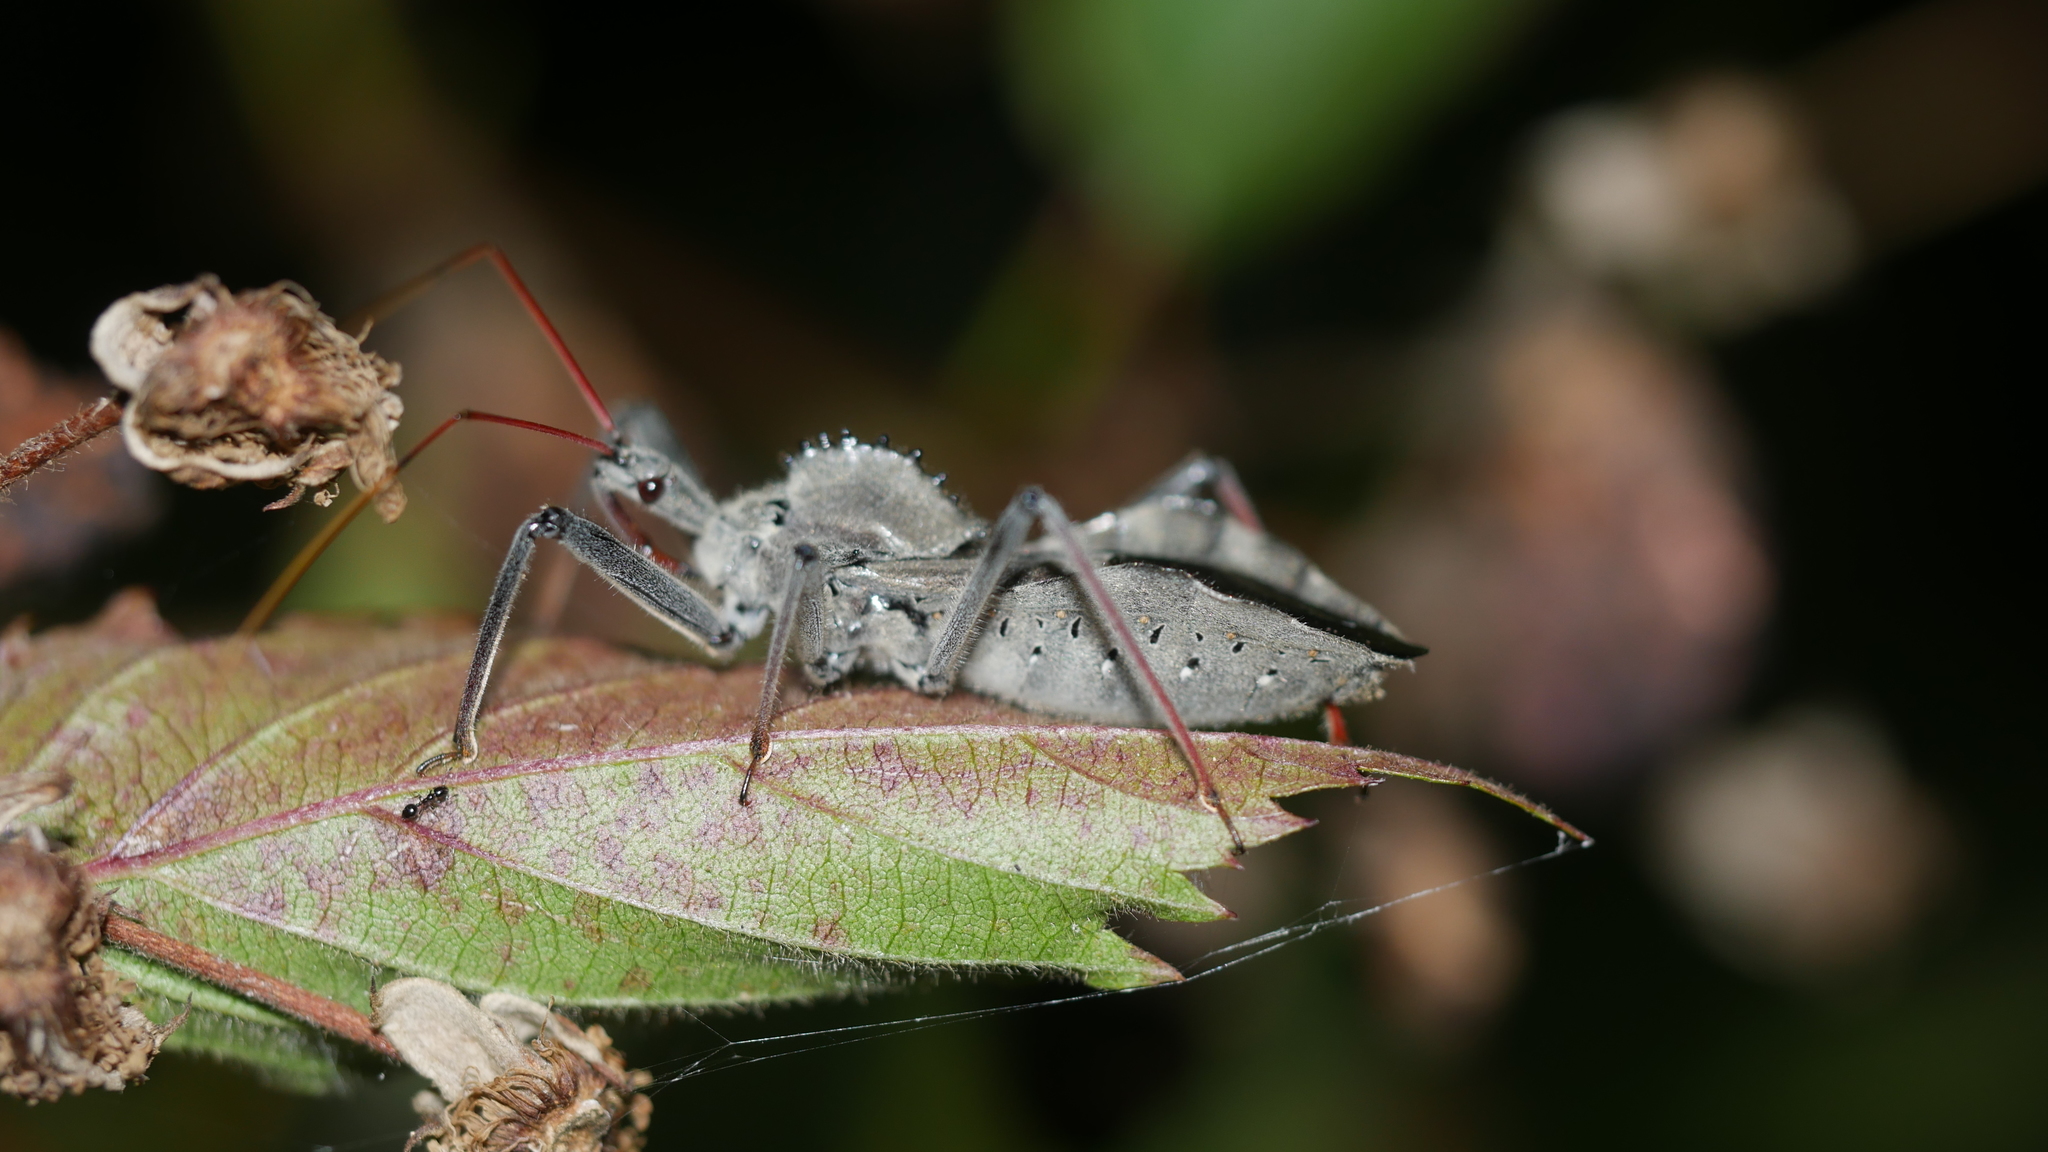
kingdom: Animalia
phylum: Arthropoda
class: Insecta
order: Hemiptera
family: Reduviidae
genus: Arilus
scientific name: Arilus cristatus
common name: North american wheel bug
